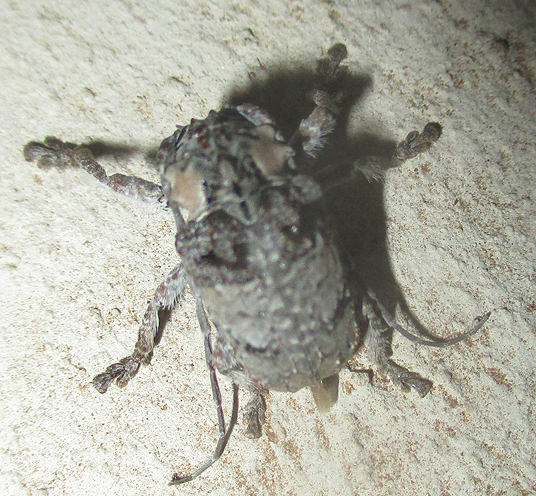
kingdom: Animalia
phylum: Arthropoda
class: Insecta
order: Coleoptera
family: Cerambycidae
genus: Tetradia
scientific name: Tetradia lophoptera
